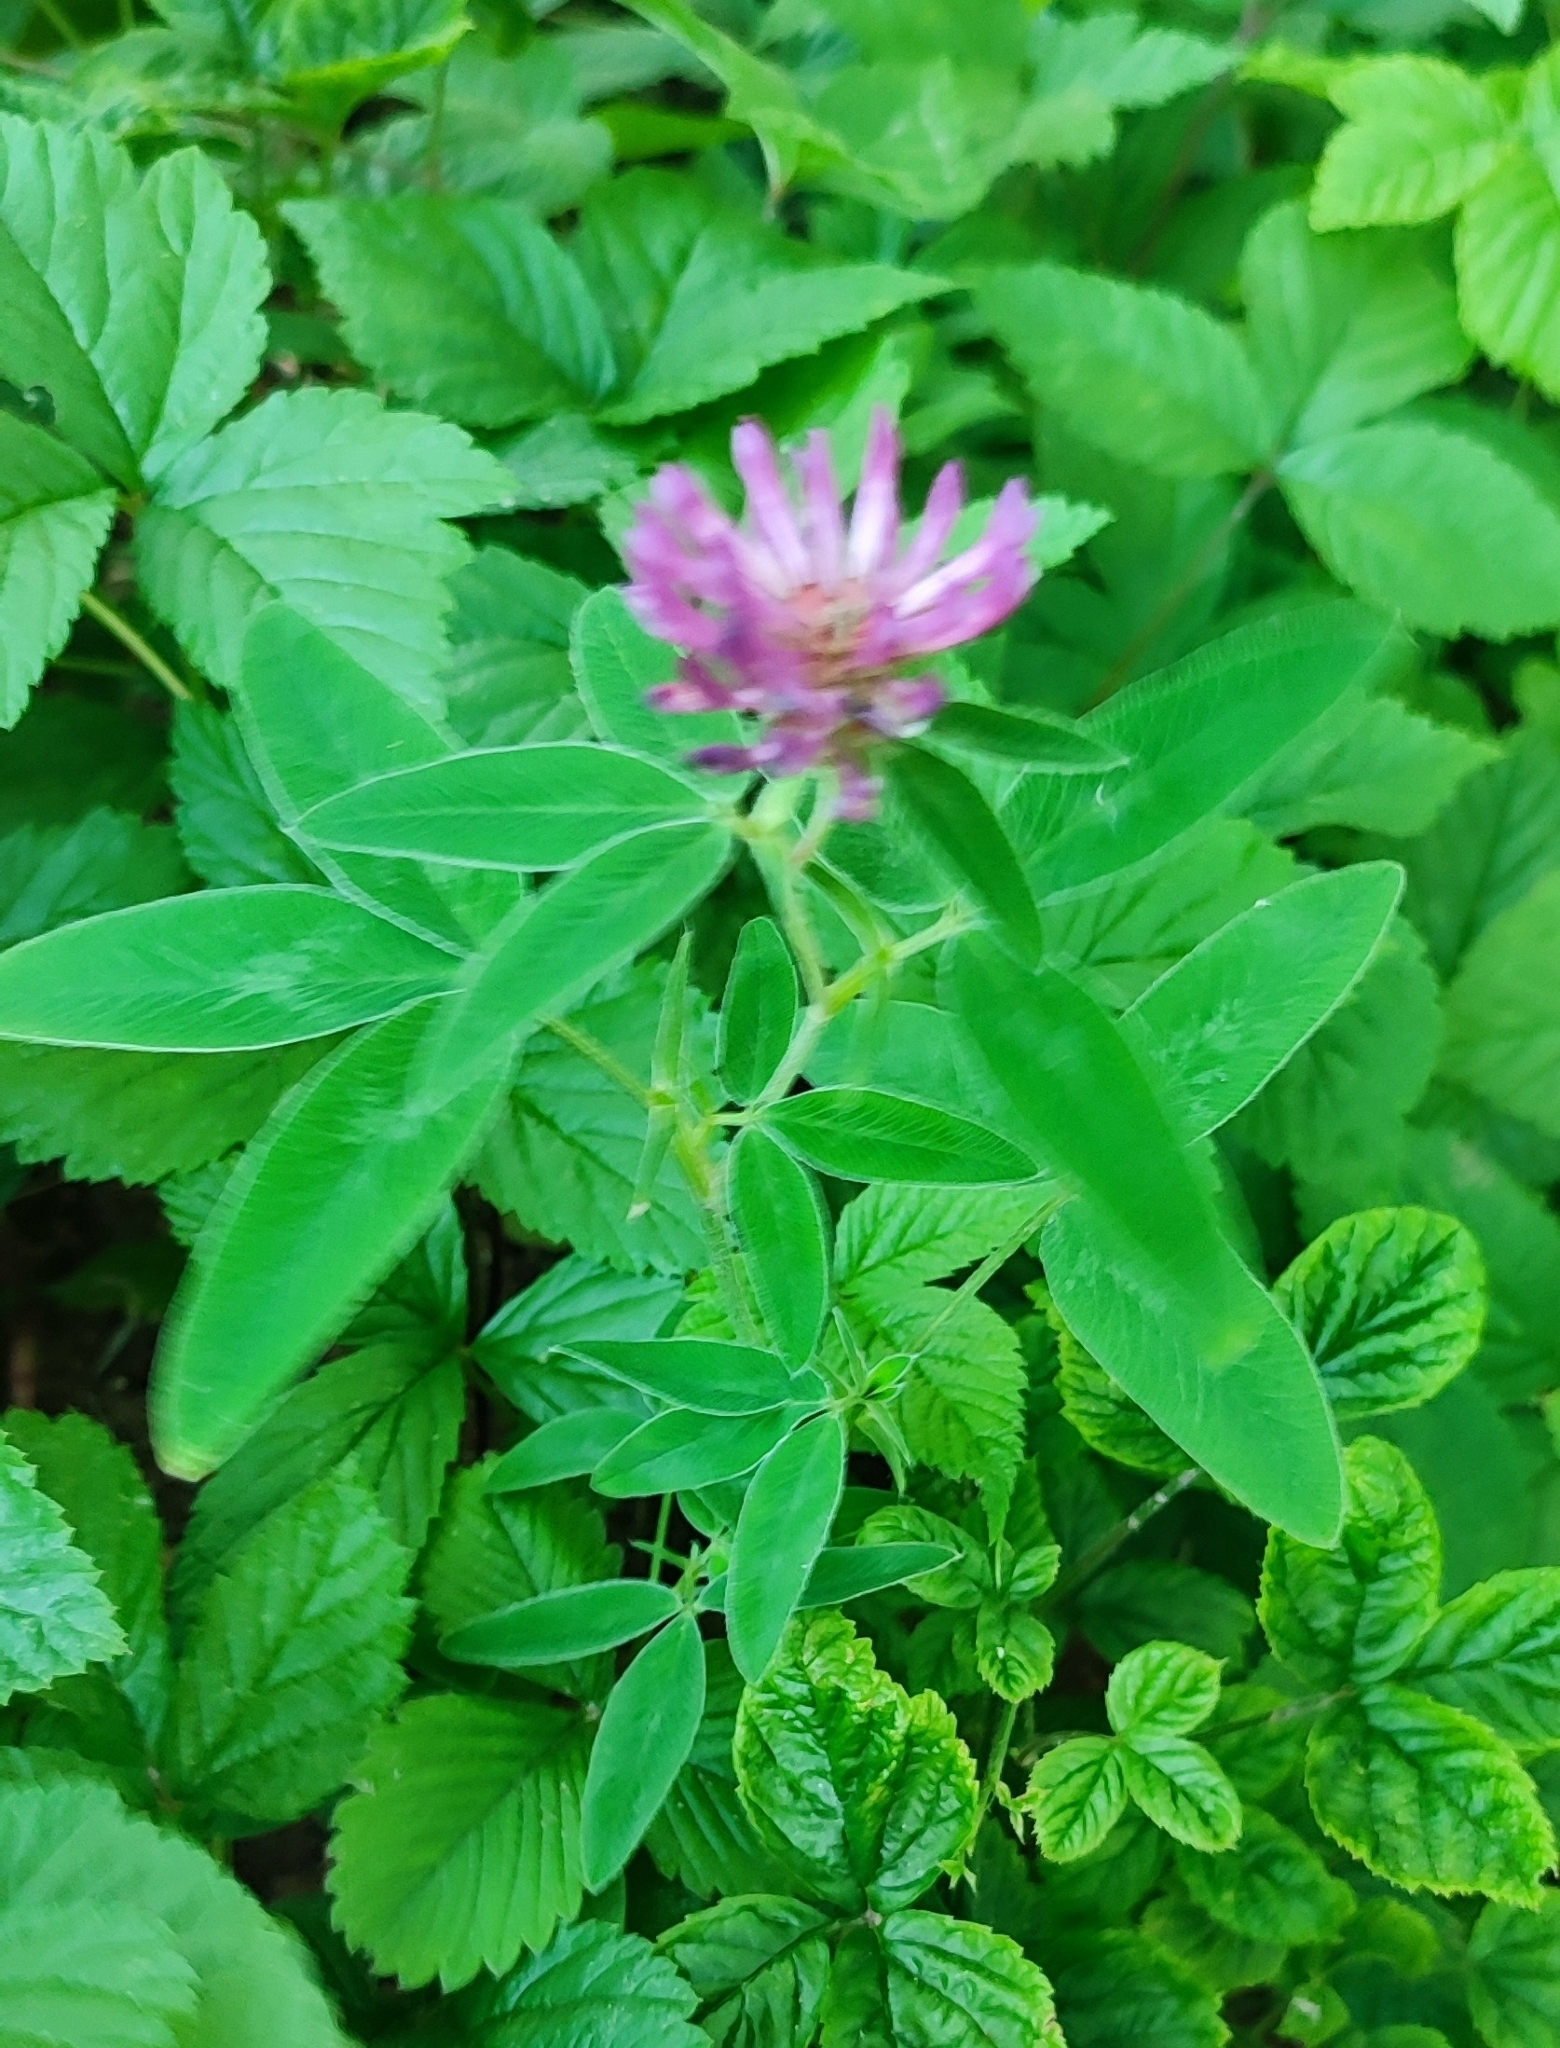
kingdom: Plantae
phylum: Tracheophyta
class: Magnoliopsida
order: Fabales
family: Fabaceae
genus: Trifolium
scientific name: Trifolium medium
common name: Zigzag clover
